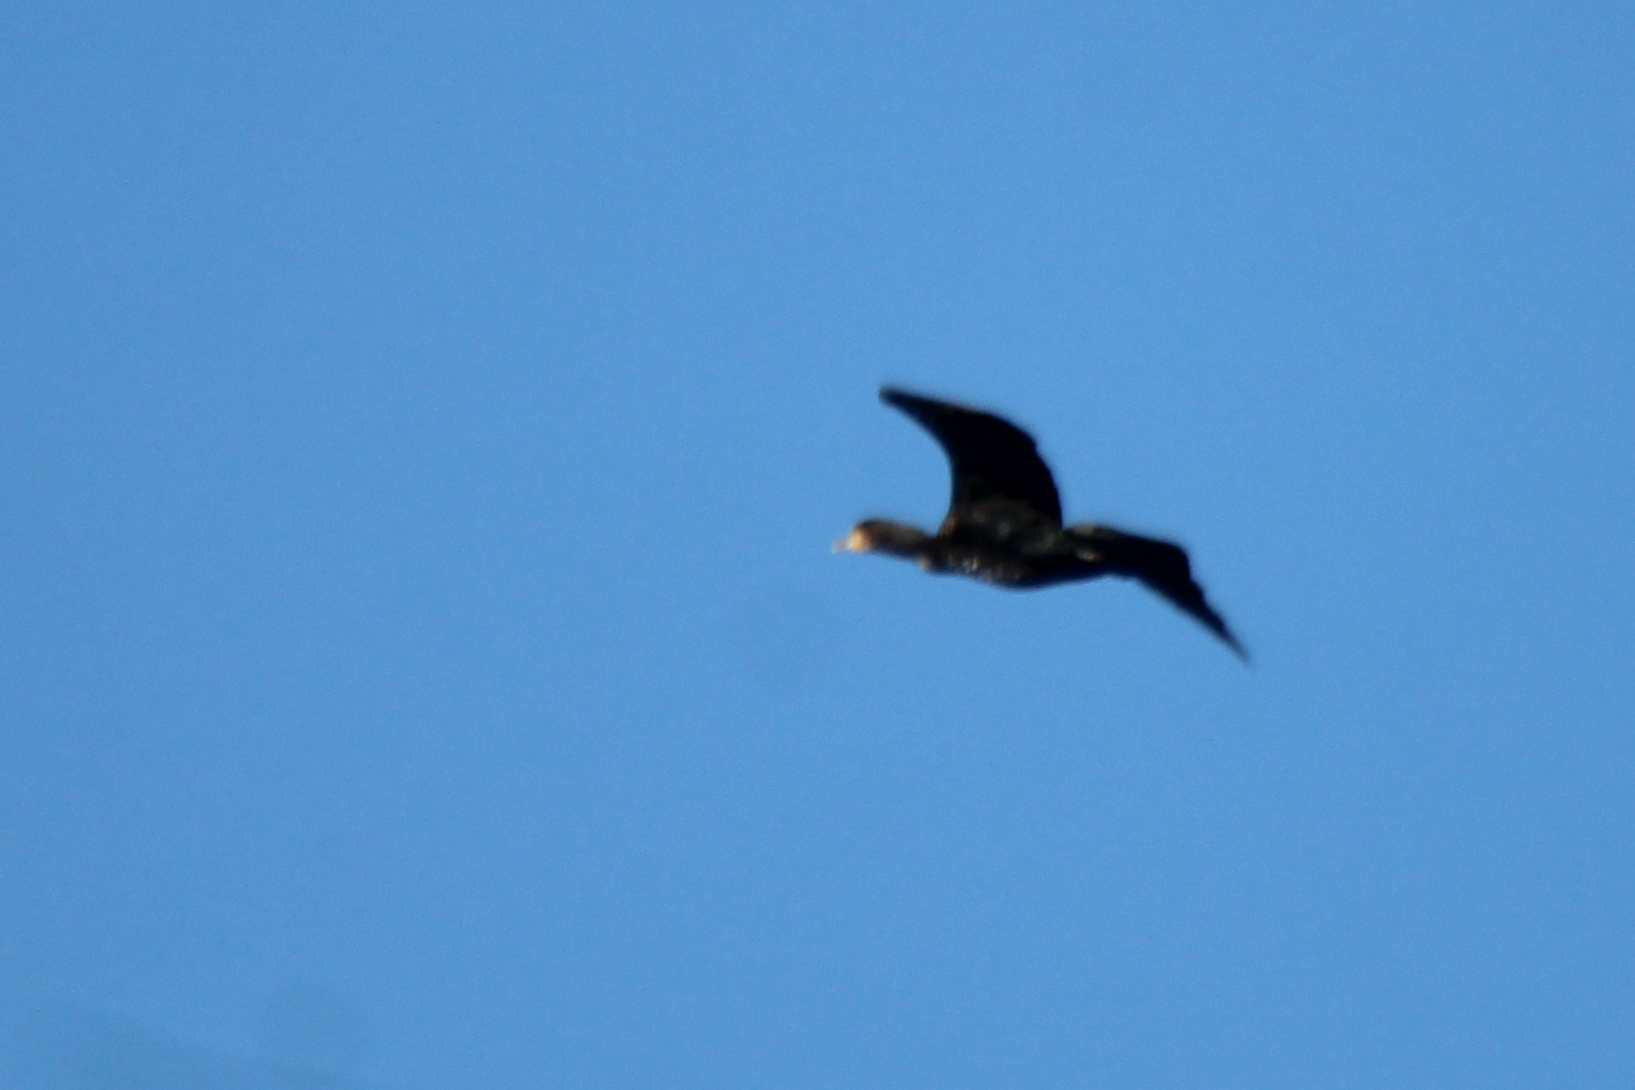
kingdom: Animalia
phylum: Chordata
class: Aves
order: Suliformes
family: Phalacrocoracidae
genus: Phalacrocorax
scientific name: Phalacrocorax carbo
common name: Great cormorant
